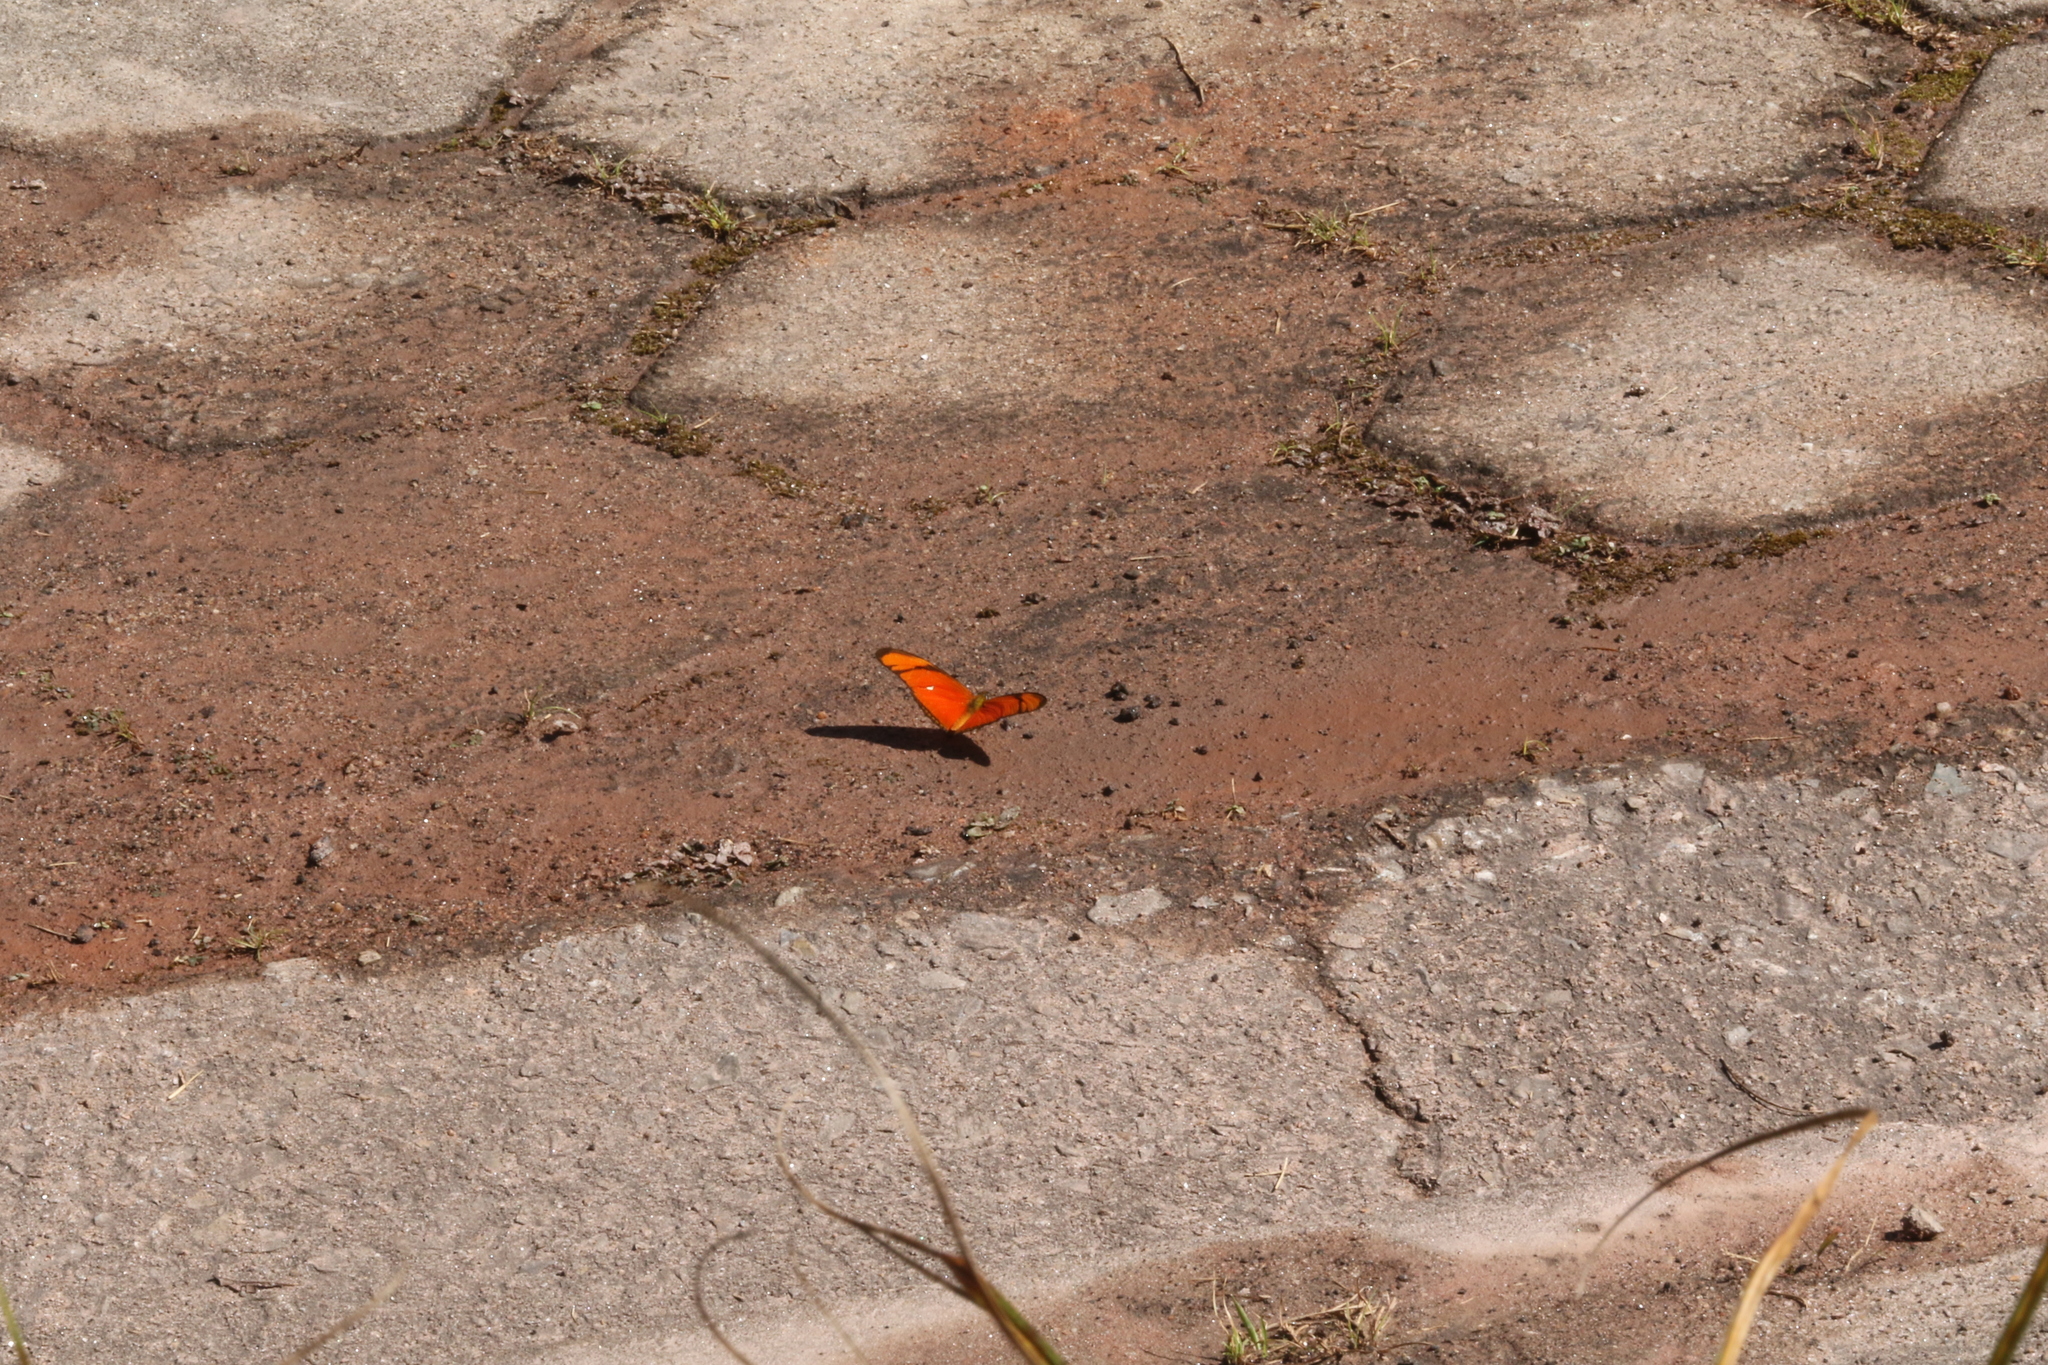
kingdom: Animalia
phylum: Arthropoda
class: Insecta
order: Lepidoptera
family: Nymphalidae
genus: Dryas
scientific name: Dryas iulia
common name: Flambeau
